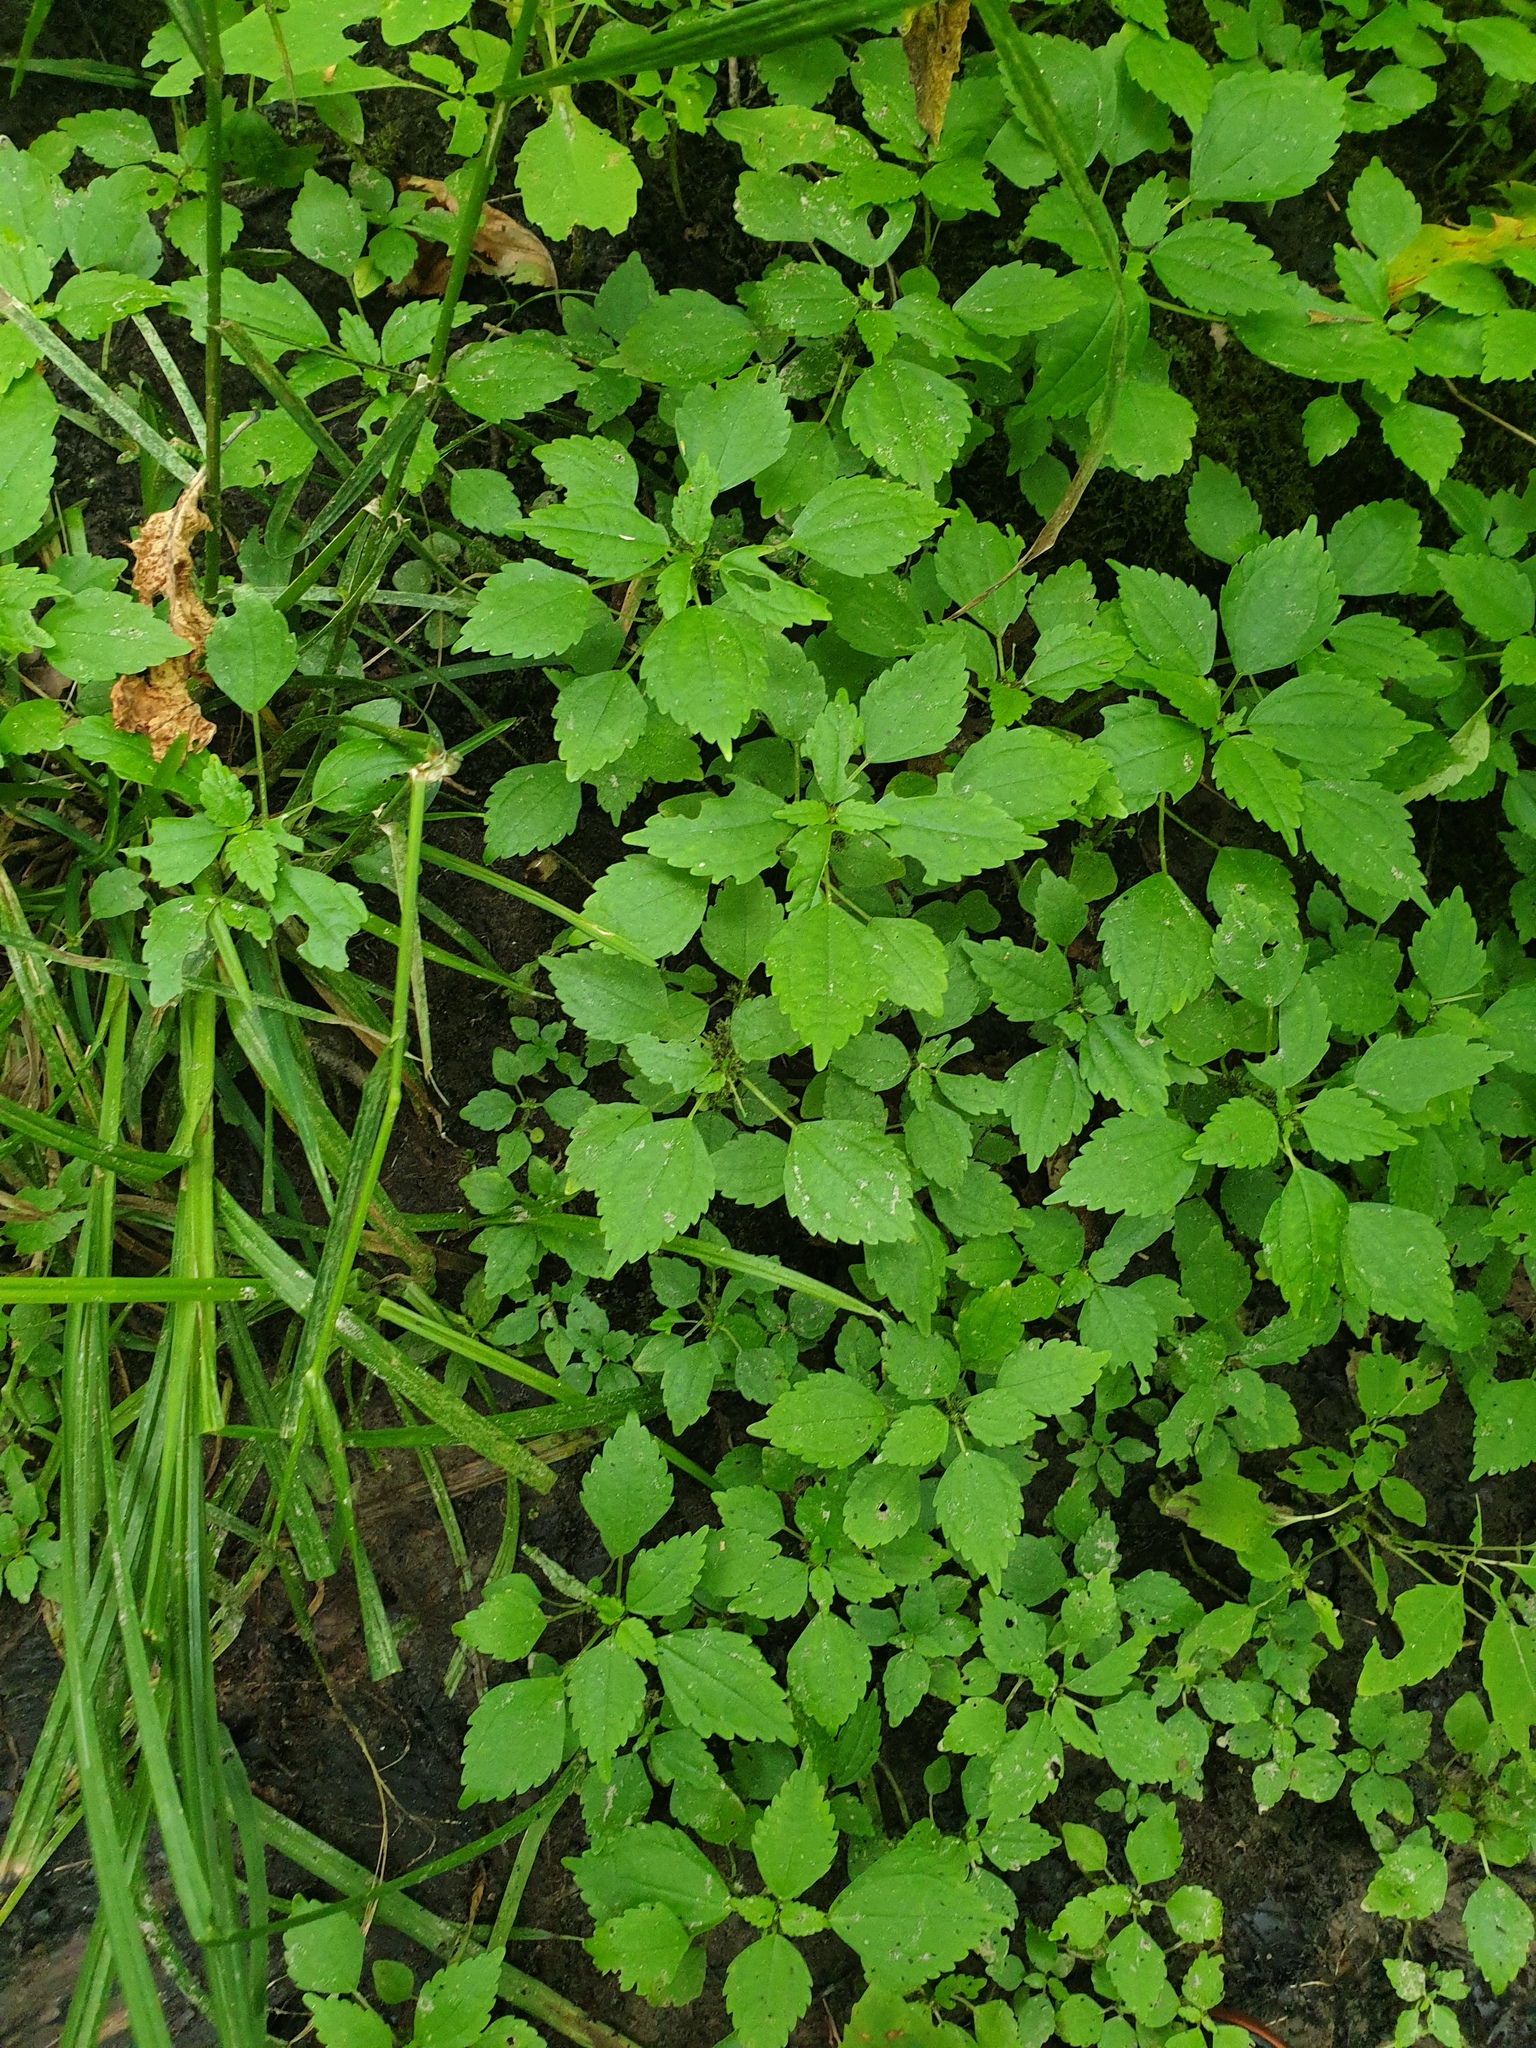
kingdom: Plantae
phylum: Tracheophyta
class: Magnoliopsida
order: Rosales
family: Urticaceae
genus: Pilea
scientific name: Pilea fontana
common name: Clearweed
